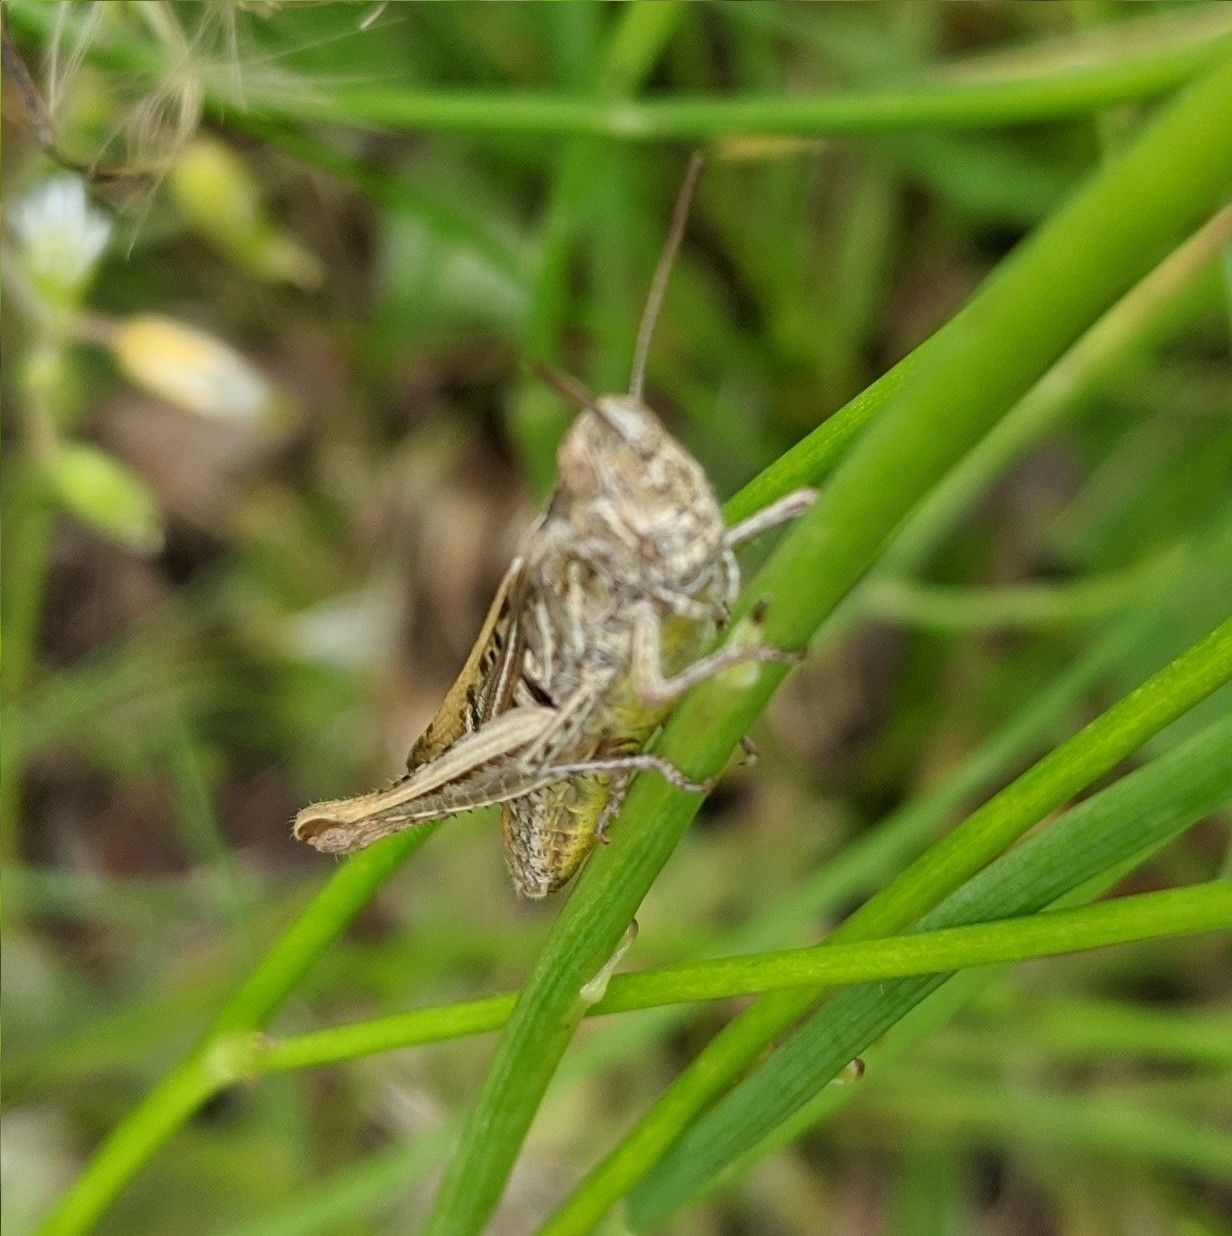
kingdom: Animalia
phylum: Arthropoda
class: Insecta
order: Orthoptera
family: Acrididae
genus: Chorthippus
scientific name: Chorthippus brunneus
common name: Field grasshopper
